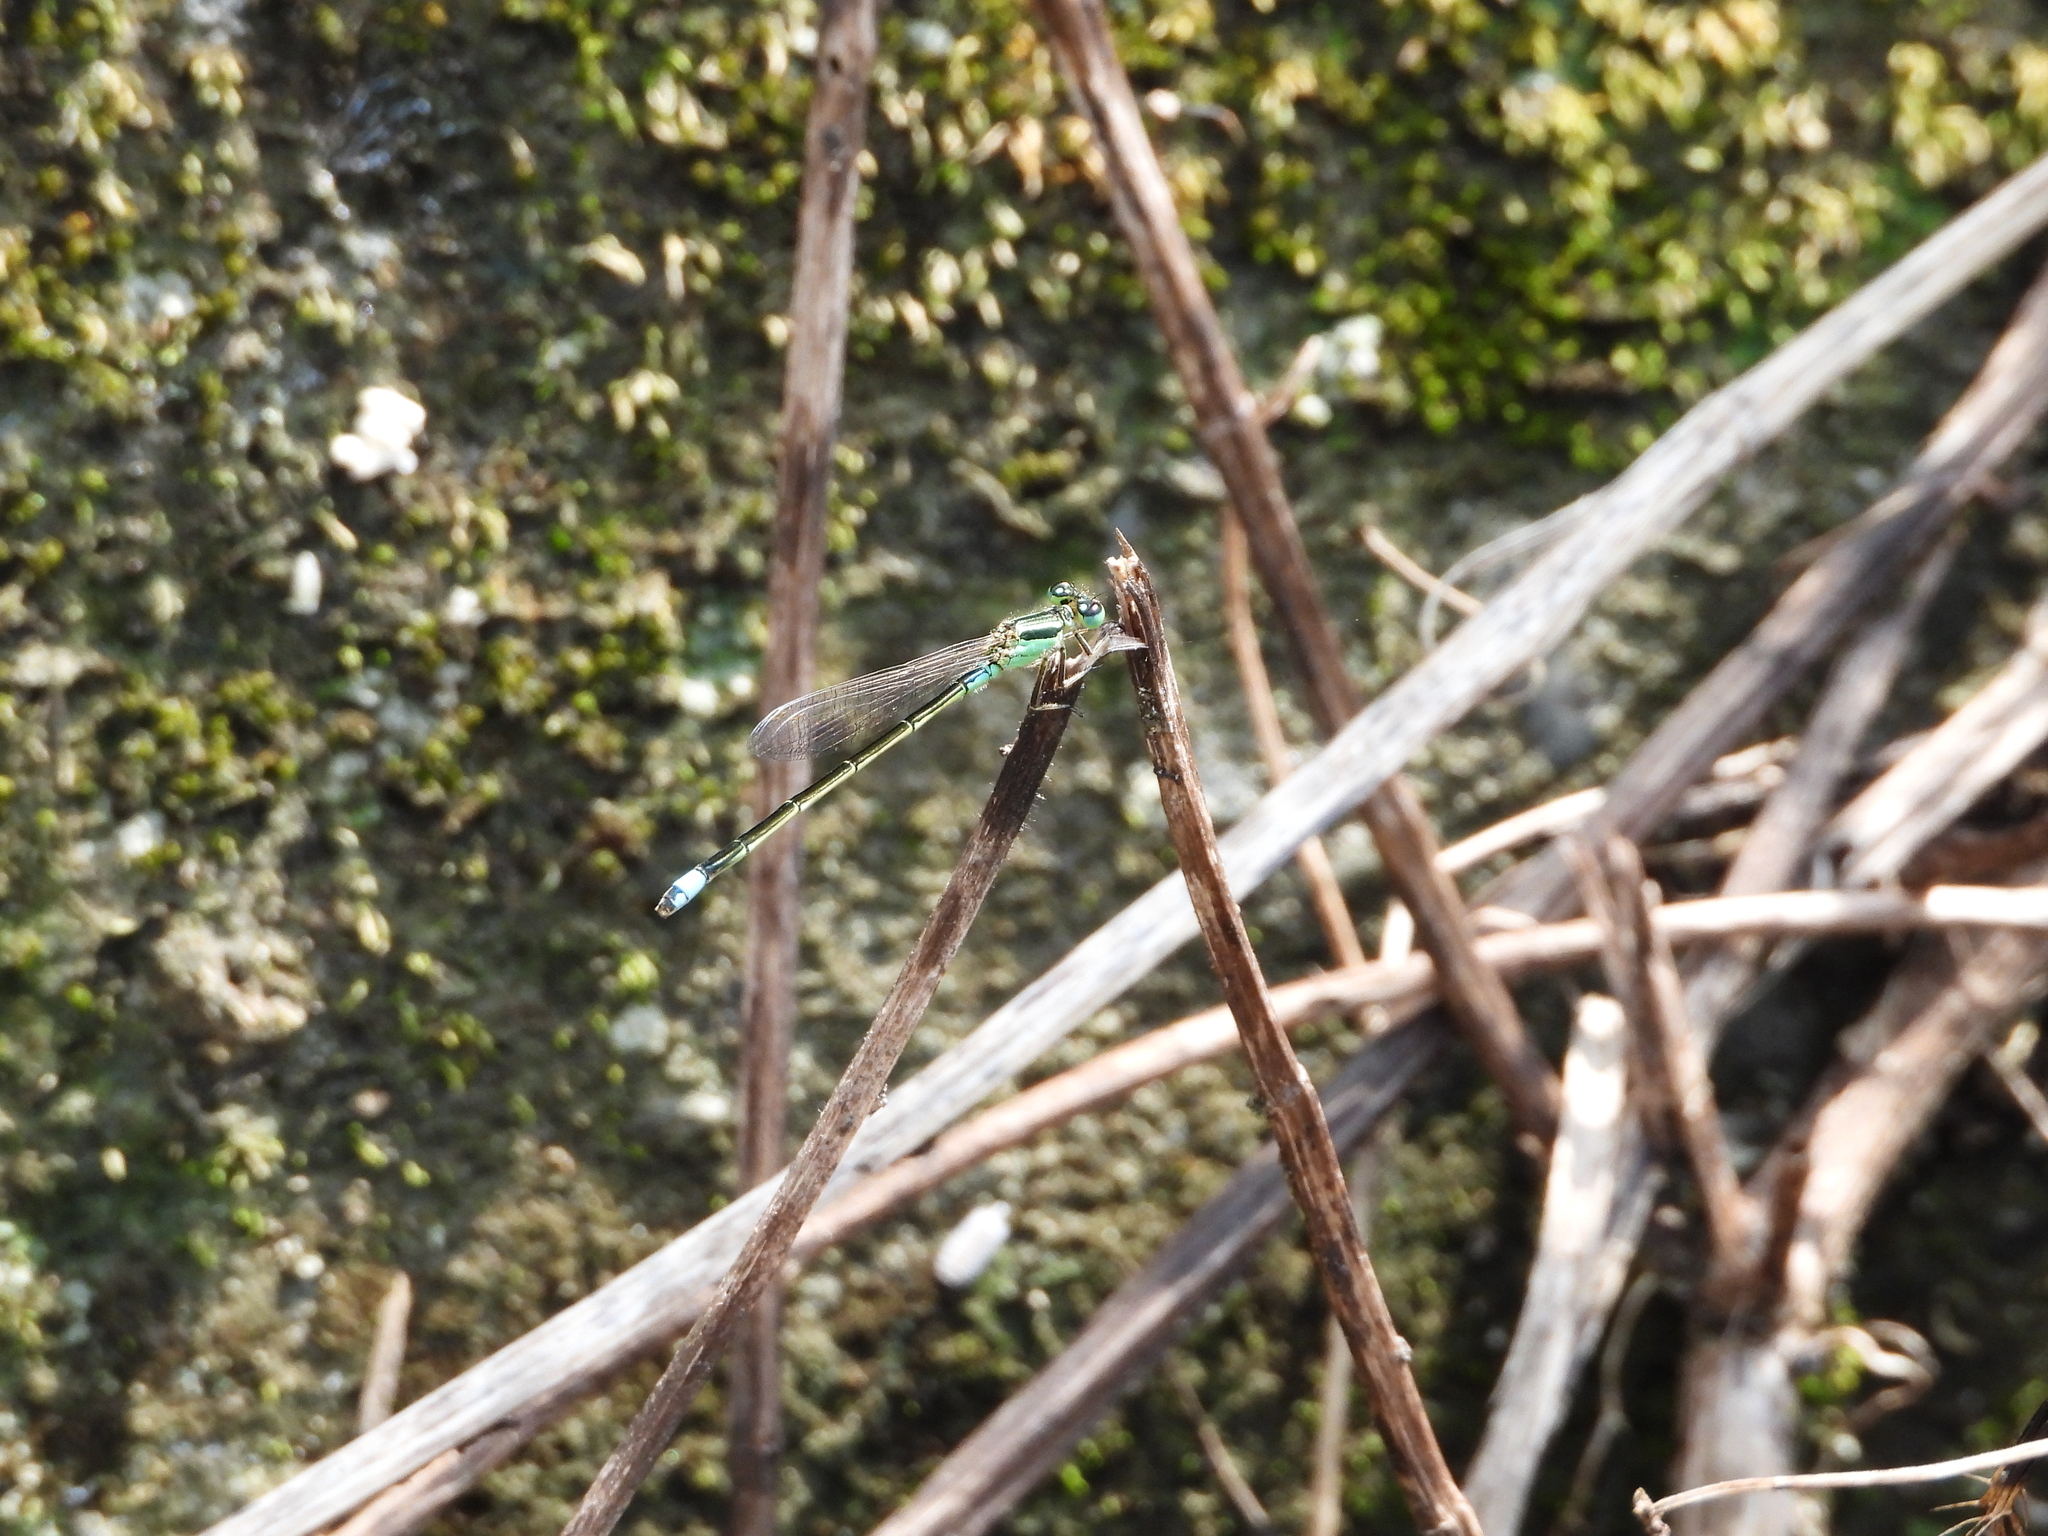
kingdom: Animalia
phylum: Arthropoda
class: Insecta
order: Odonata
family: Coenagrionidae
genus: Ischnura
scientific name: Ischnura senegalensis
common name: Tropical bluetail
